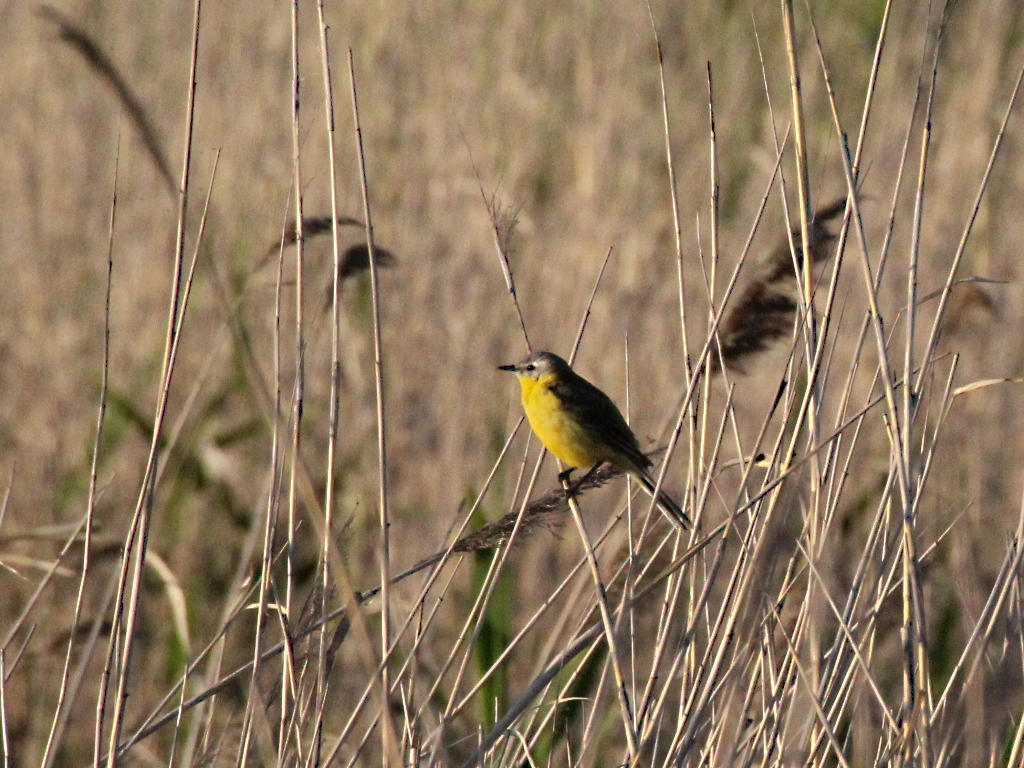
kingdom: Animalia
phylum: Chordata
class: Aves
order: Passeriformes
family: Motacillidae
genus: Motacilla
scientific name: Motacilla flava
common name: Western yellow wagtail
